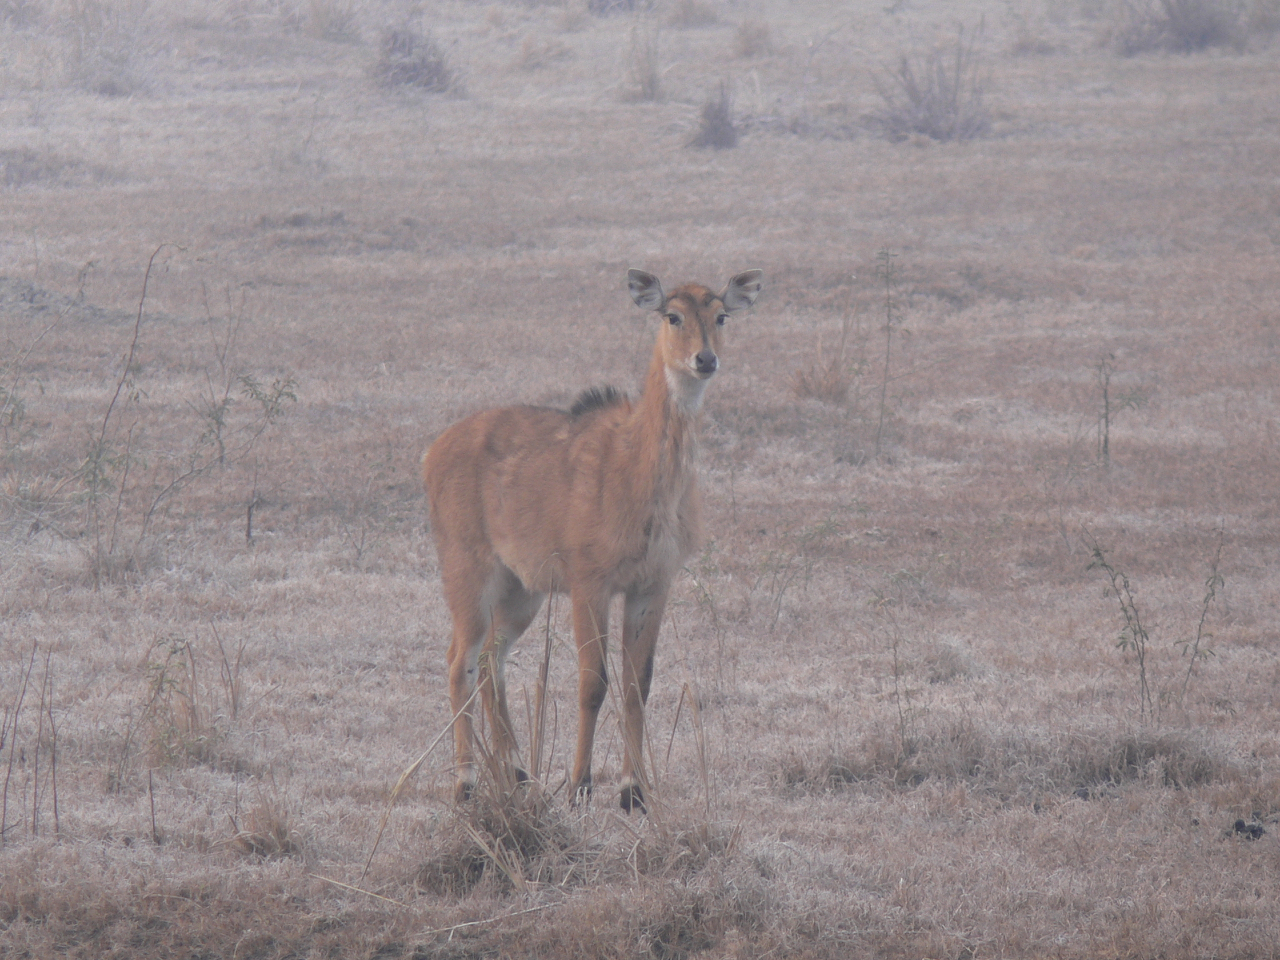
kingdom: Animalia
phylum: Chordata
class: Mammalia
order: Artiodactyla
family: Bovidae
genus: Boselaphus
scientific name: Boselaphus tragocamelus
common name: Nilgai
